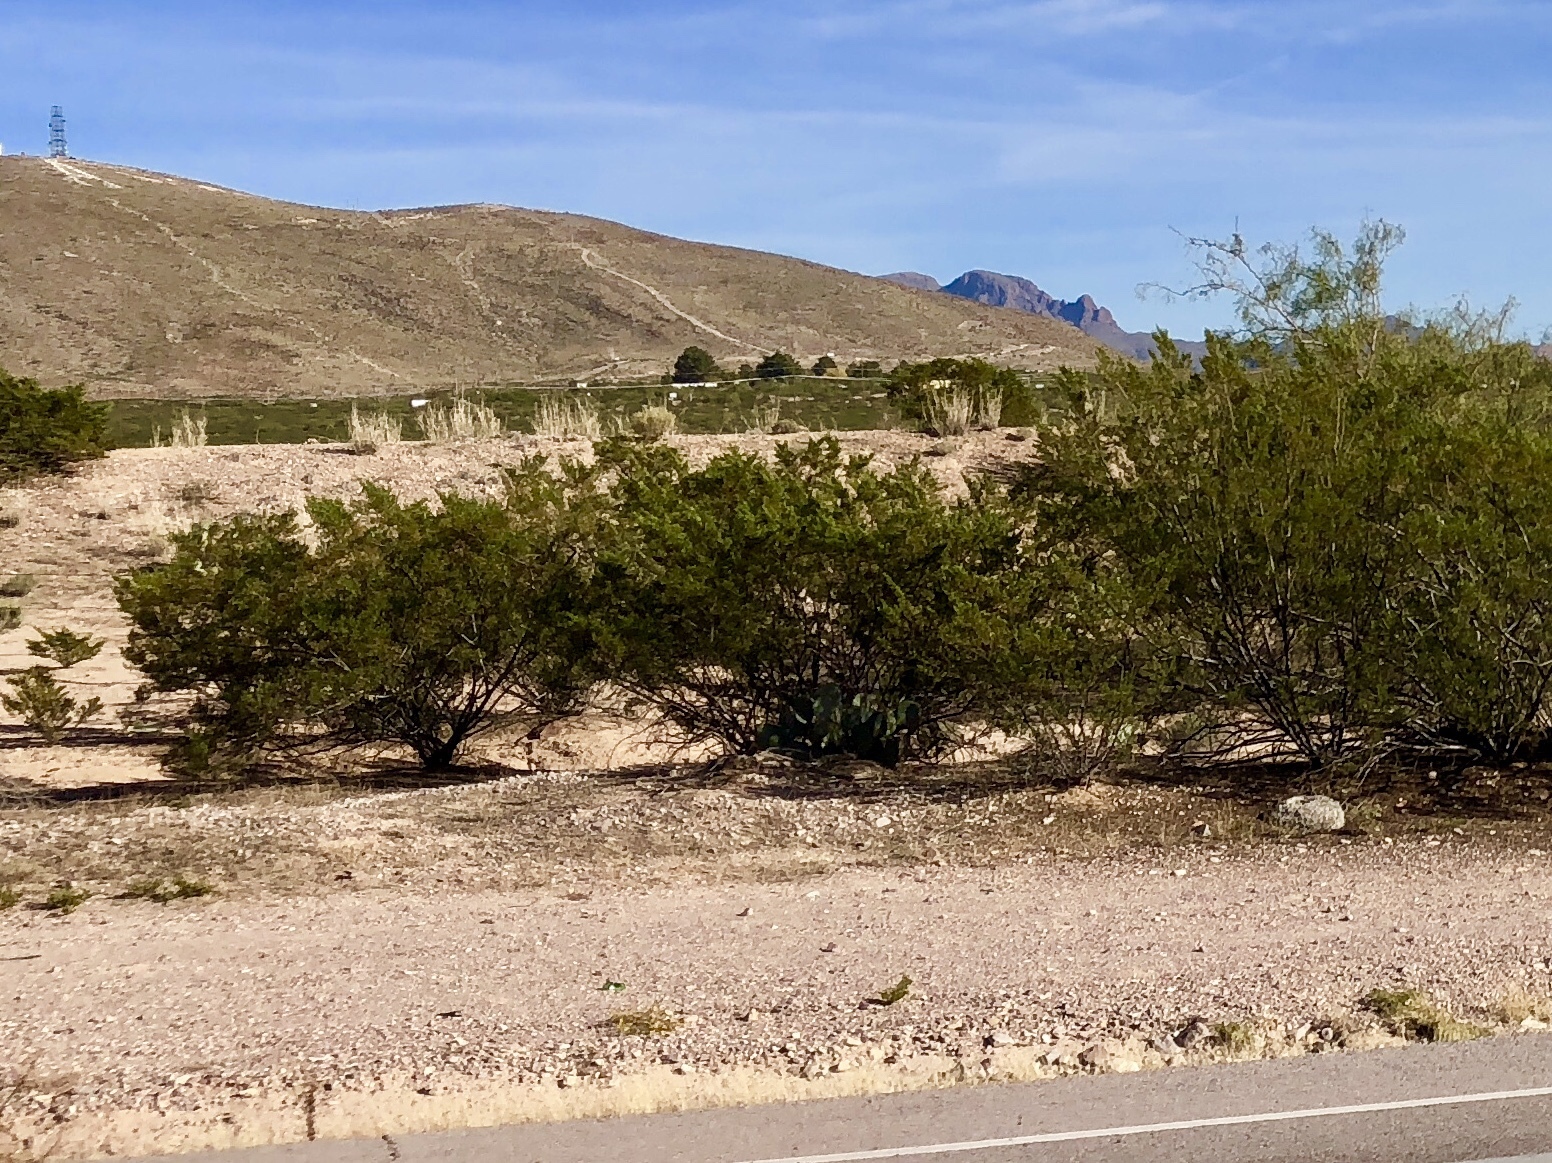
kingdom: Plantae
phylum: Tracheophyta
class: Magnoliopsida
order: Zygophyllales
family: Zygophyllaceae
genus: Larrea
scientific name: Larrea tridentata
